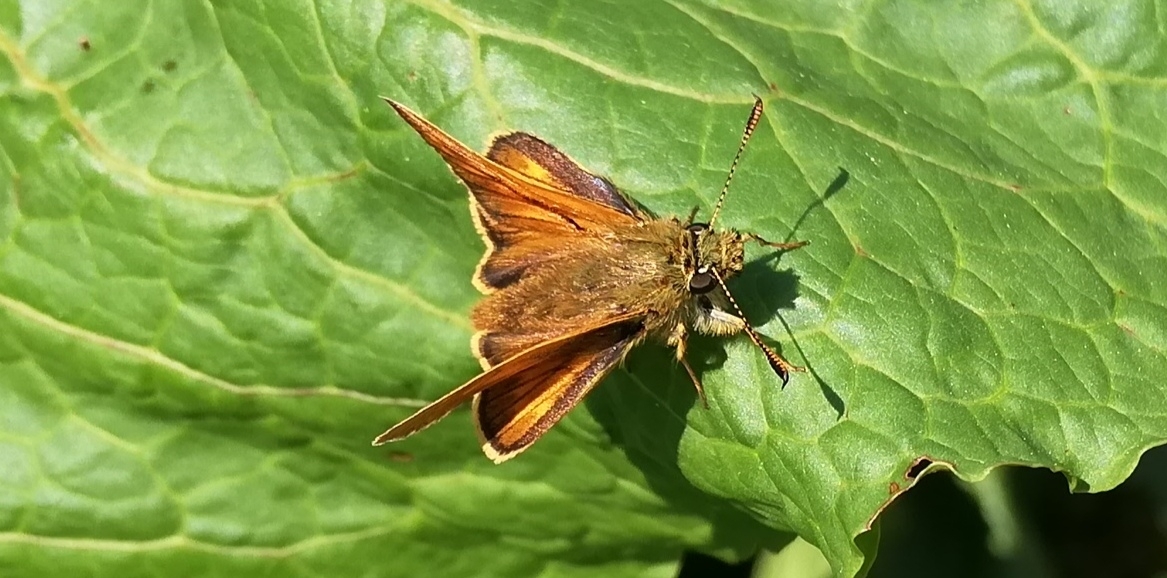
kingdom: Animalia
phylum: Arthropoda
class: Insecta
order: Lepidoptera
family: Hesperiidae
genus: Ochlodes
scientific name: Ochlodes venata
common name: Large skipper
